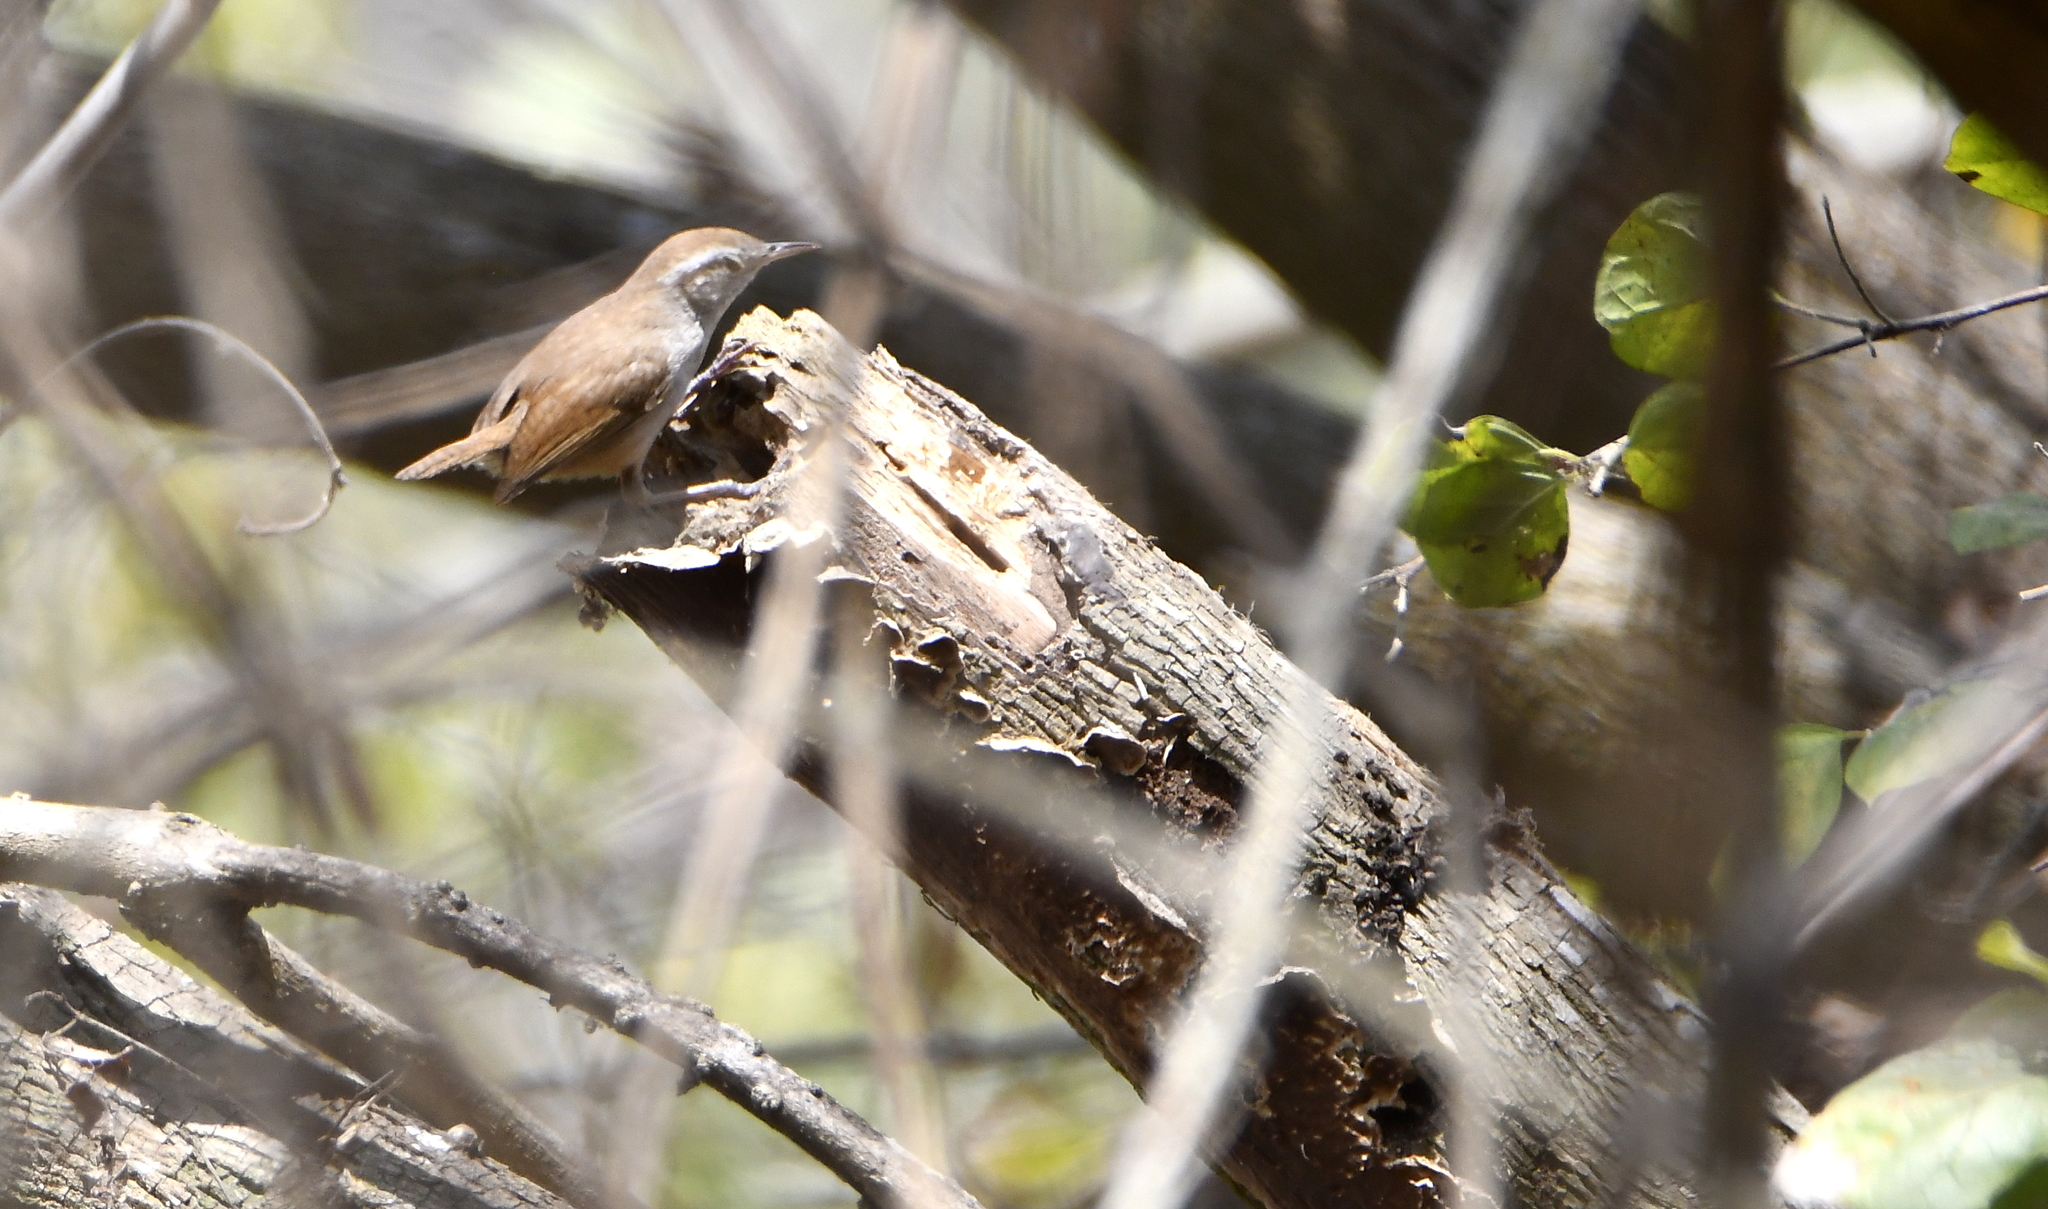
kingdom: Animalia
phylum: Chordata
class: Aves
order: Passeriformes
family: Troglodytidae
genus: Thryophilus
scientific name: Thryophilus sinaloa
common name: Sinaloa wren
